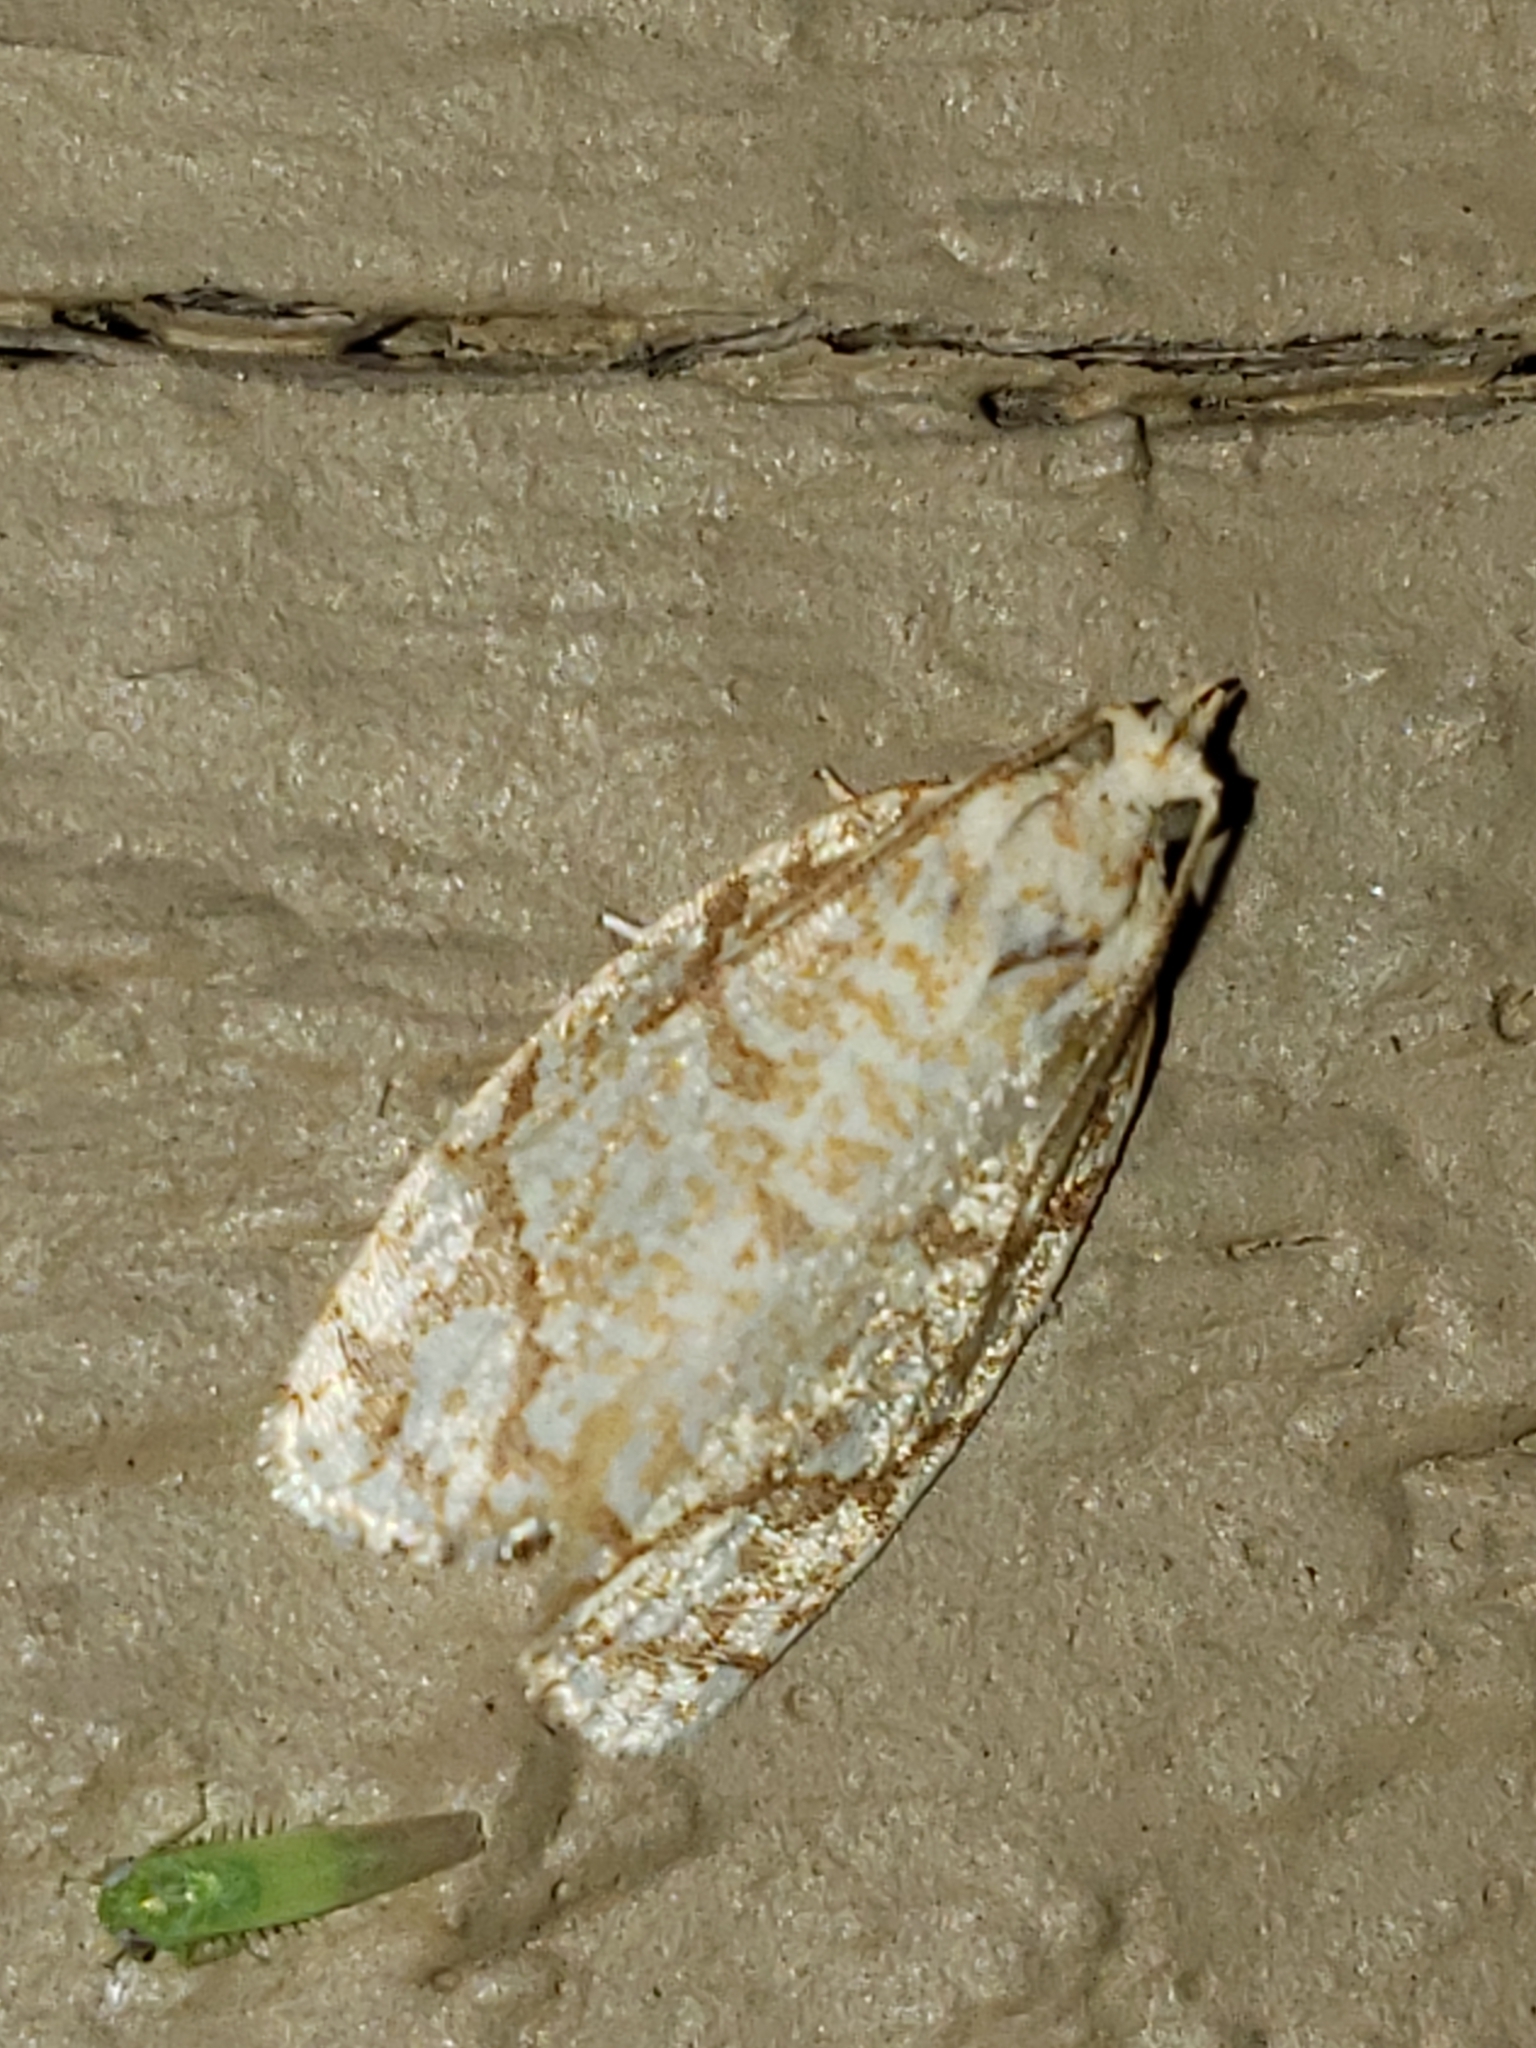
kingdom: Animalia
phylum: Arthropoda
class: Insecta
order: Lepidoptera
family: Tortricidae
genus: Argyrotaenia
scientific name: Argyrotaenia quercifoliana
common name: Yellow-winged oak leafroller moth
